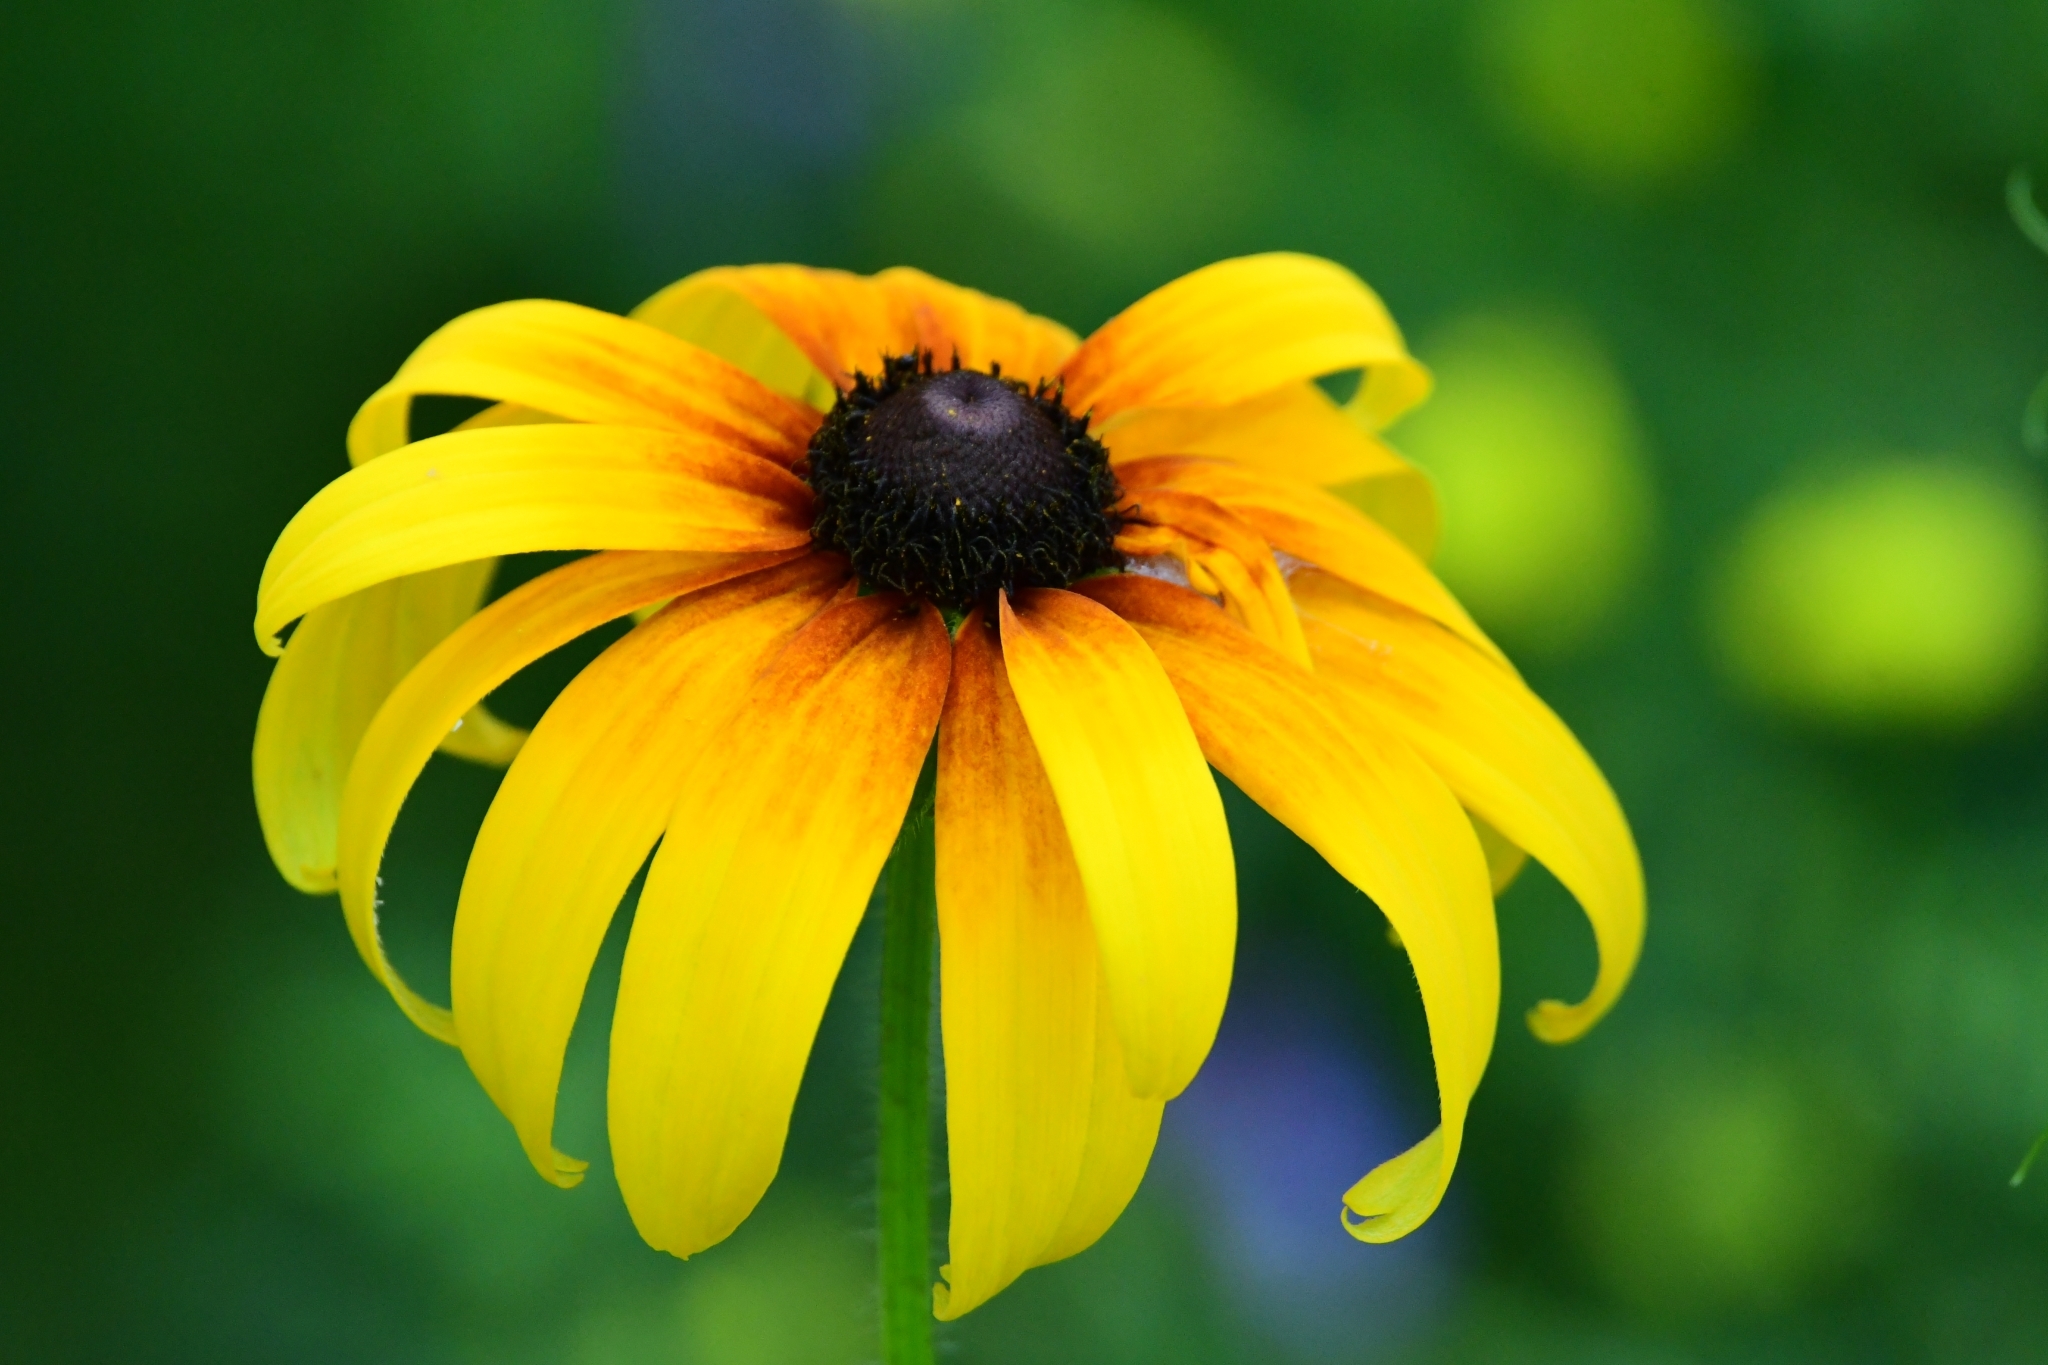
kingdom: Plantae
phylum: Tracheophyta
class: Magnoliopsida
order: Asterales
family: Asteraceae
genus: Rudbeckia
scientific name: Rudbeckia hirta
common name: Black-eyed-susan
